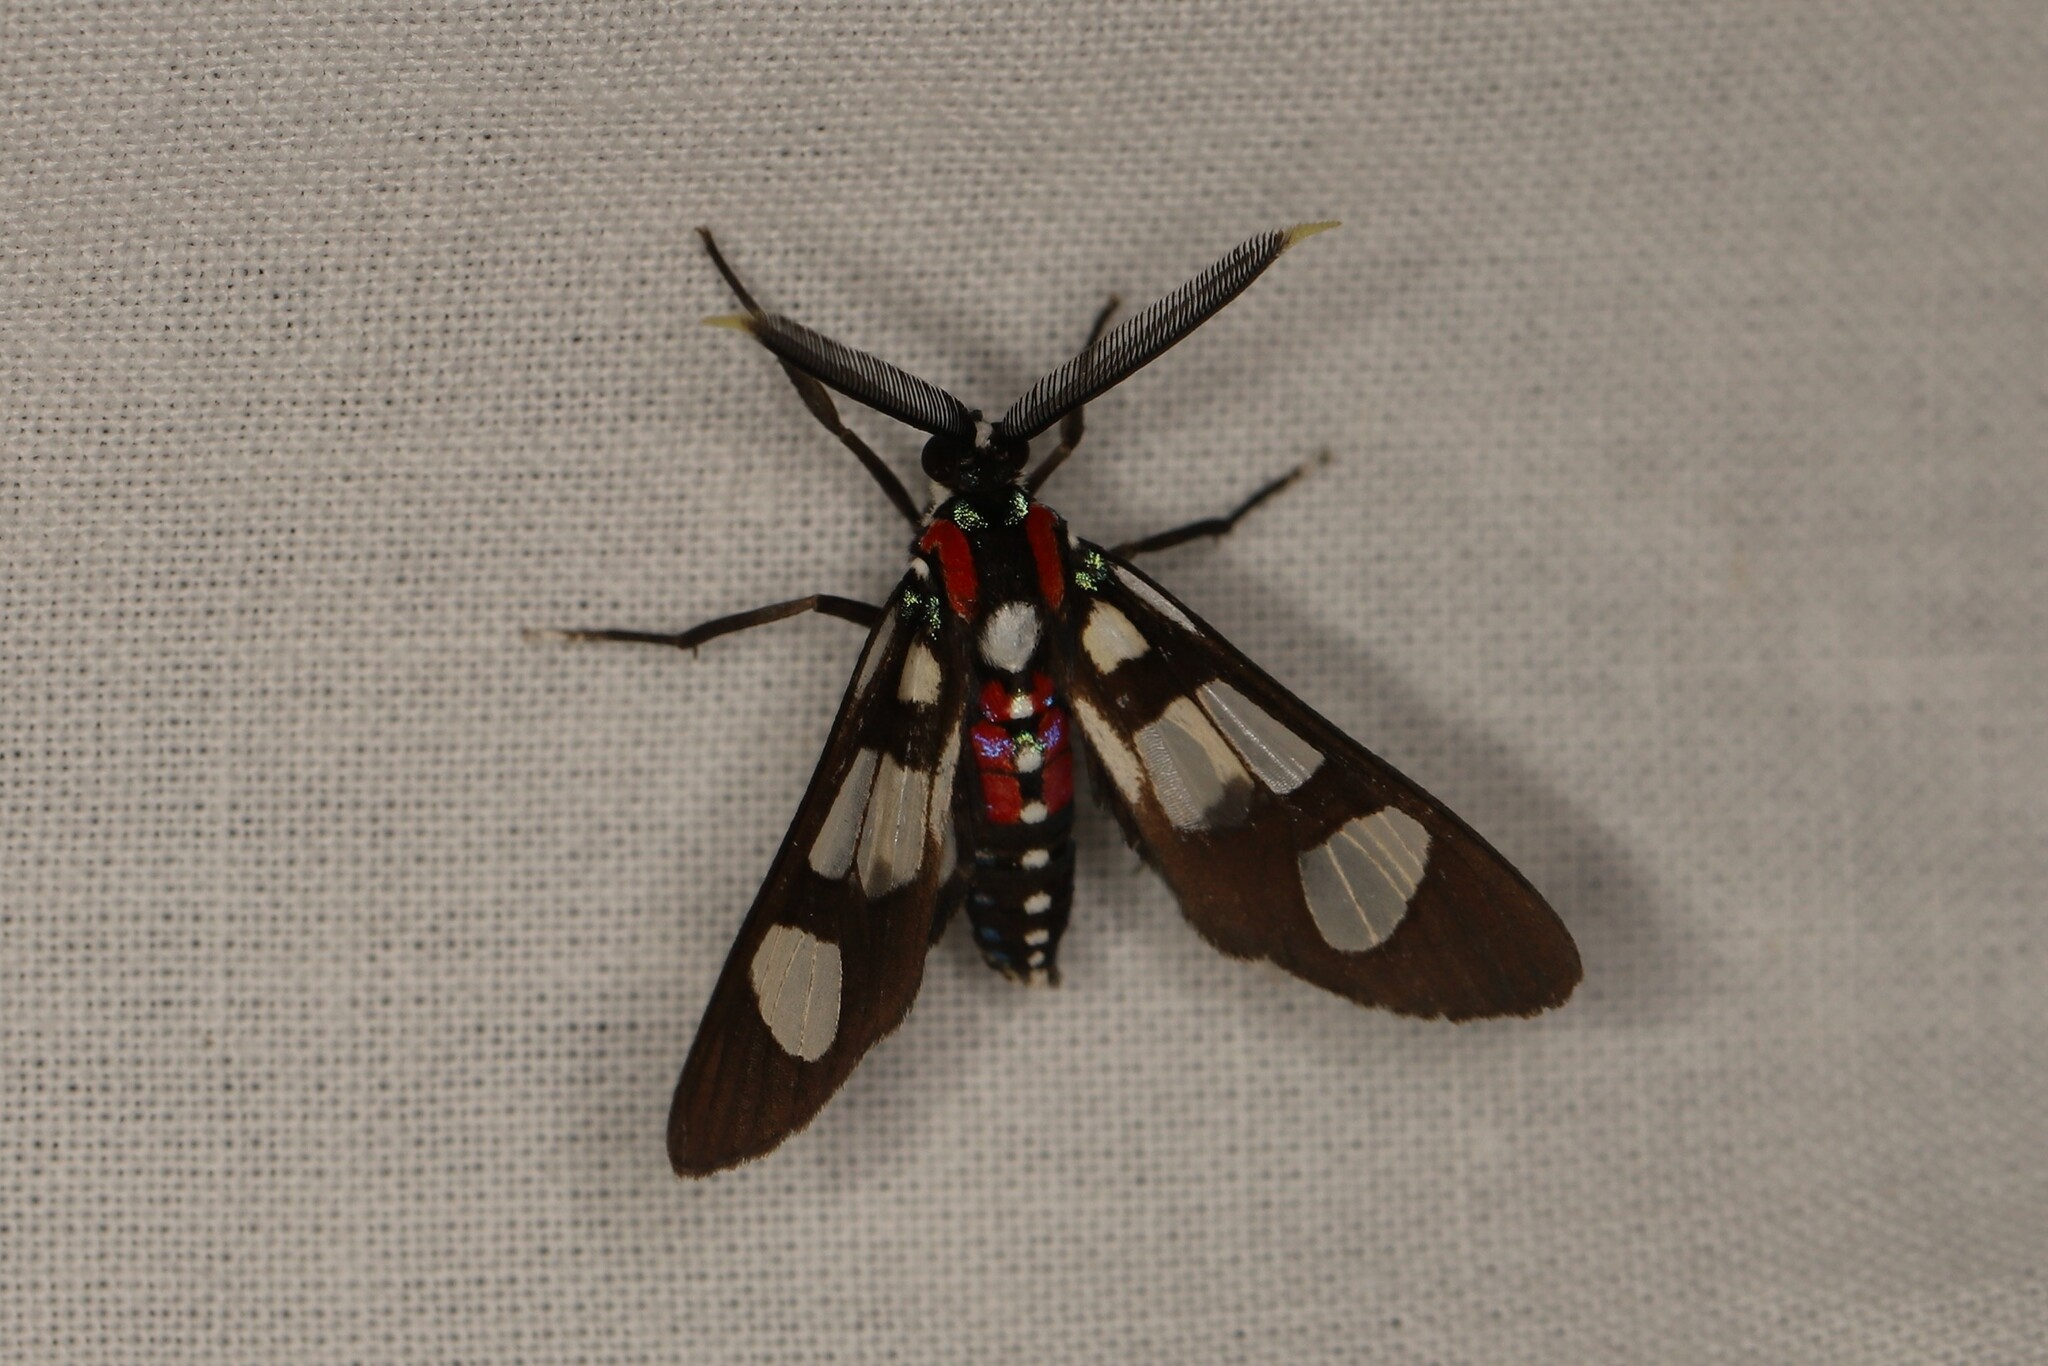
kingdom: Animalia
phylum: Arthropoda
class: Insecta
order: Lepidoptera
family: Erebidae
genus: Eurata
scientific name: Eurata histrio
